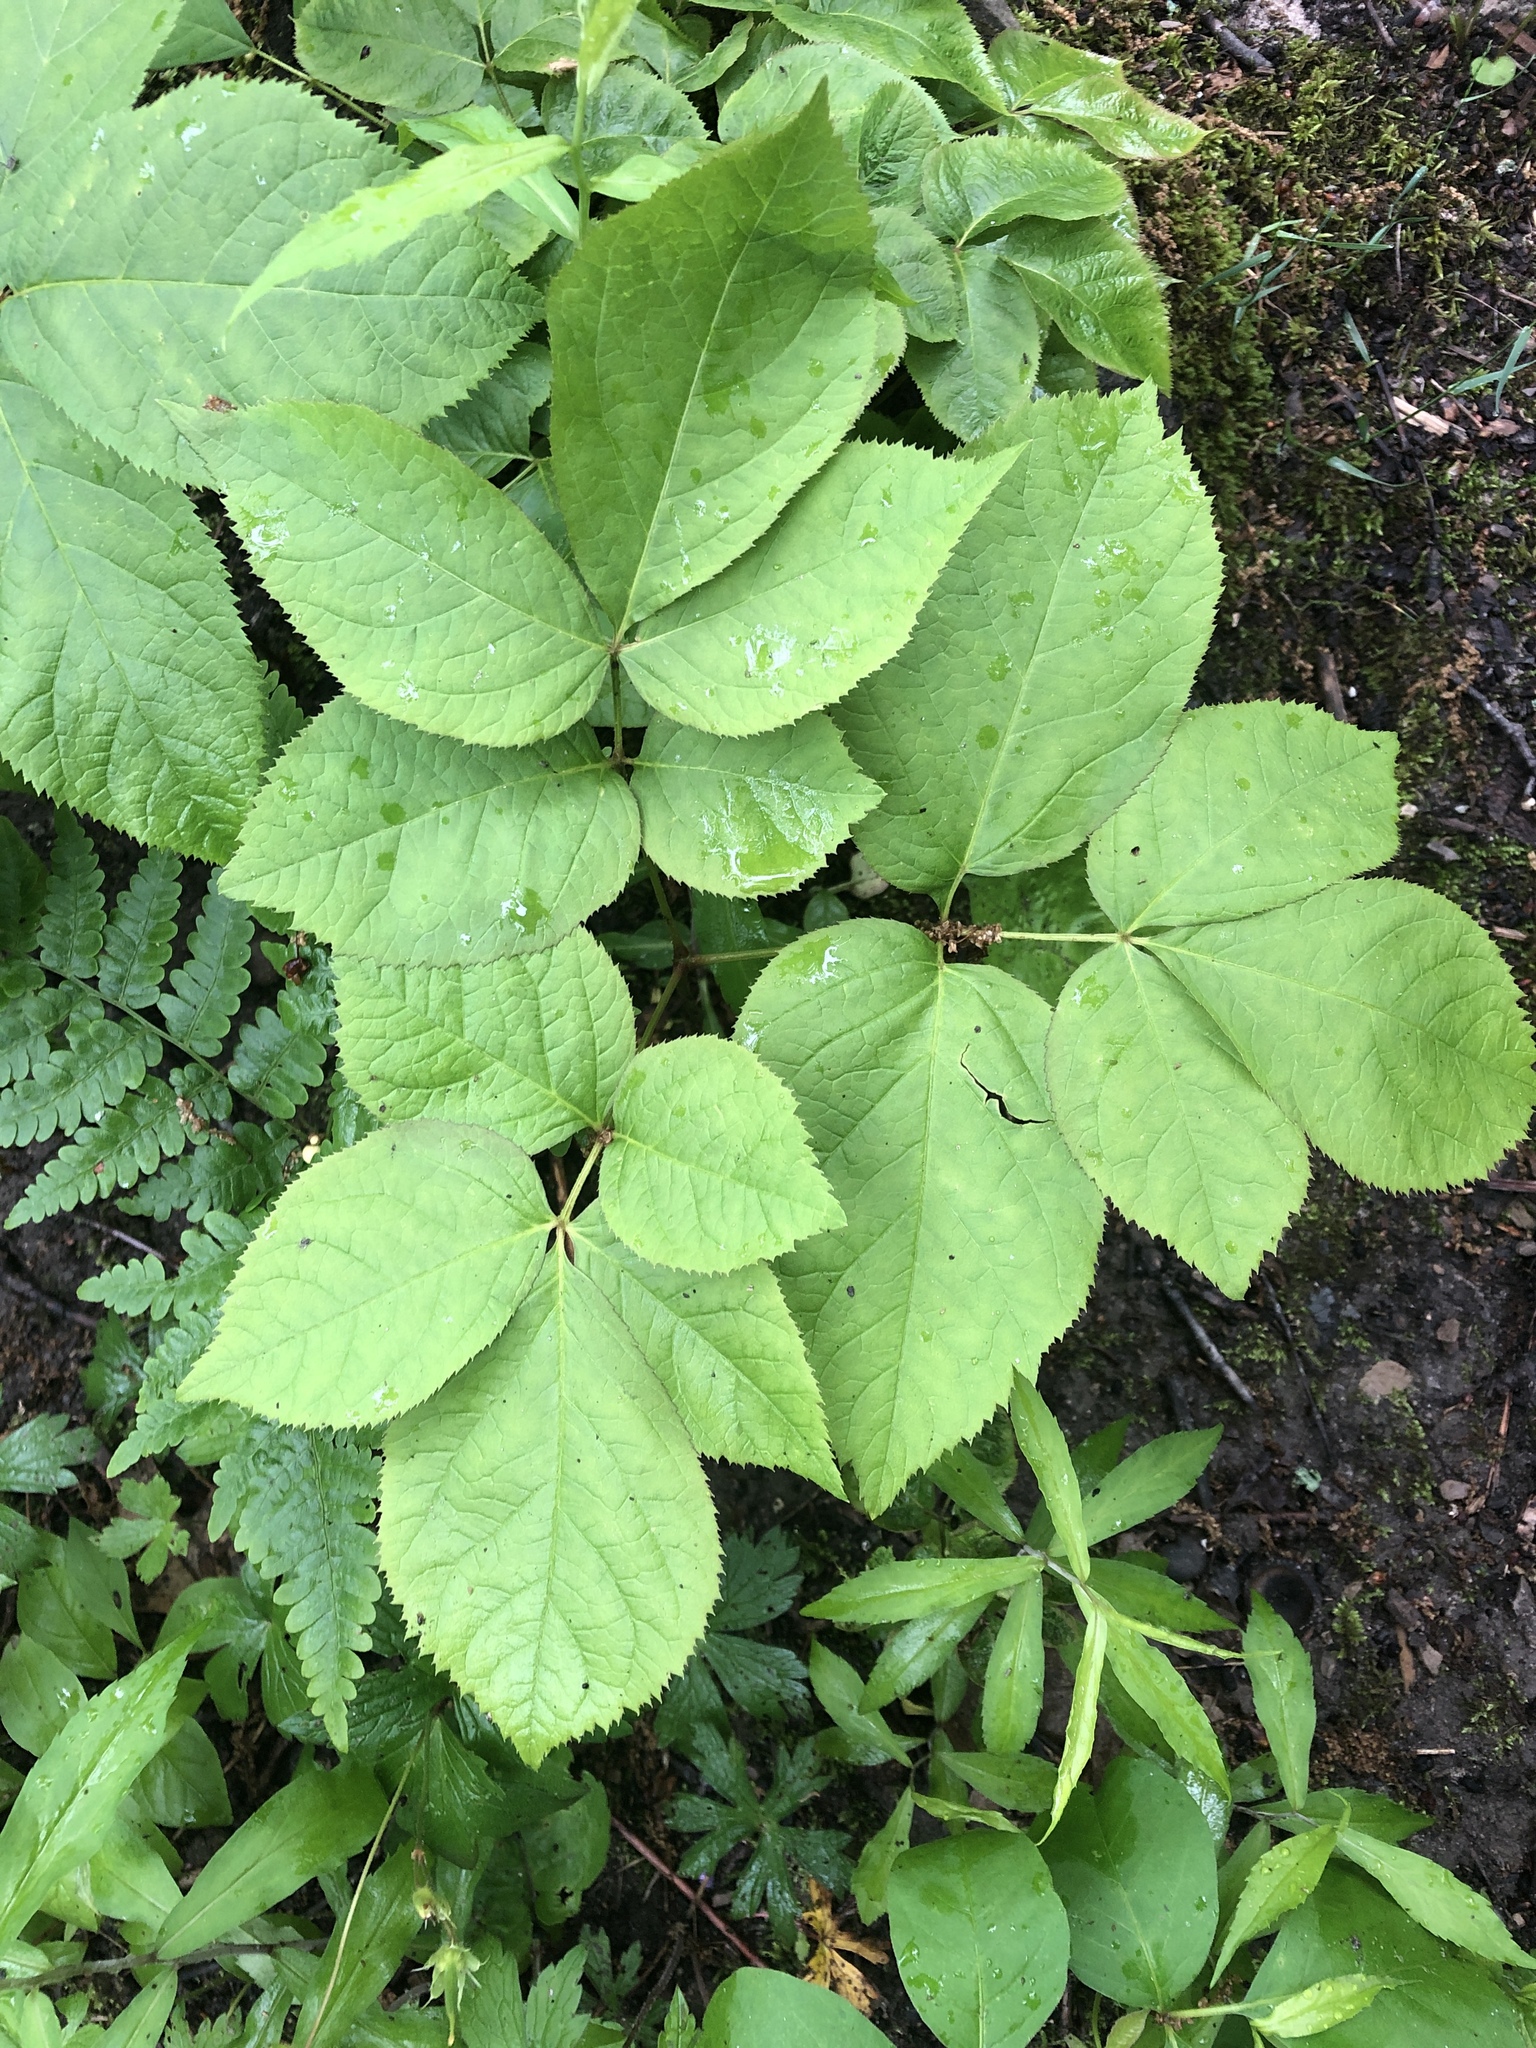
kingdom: Plantae
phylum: Tracheophyta
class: Magnoliopsida
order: Apiales
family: Araliaceae
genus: Aralia
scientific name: Aralia nudicaulis
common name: Wild sarsaparilla
